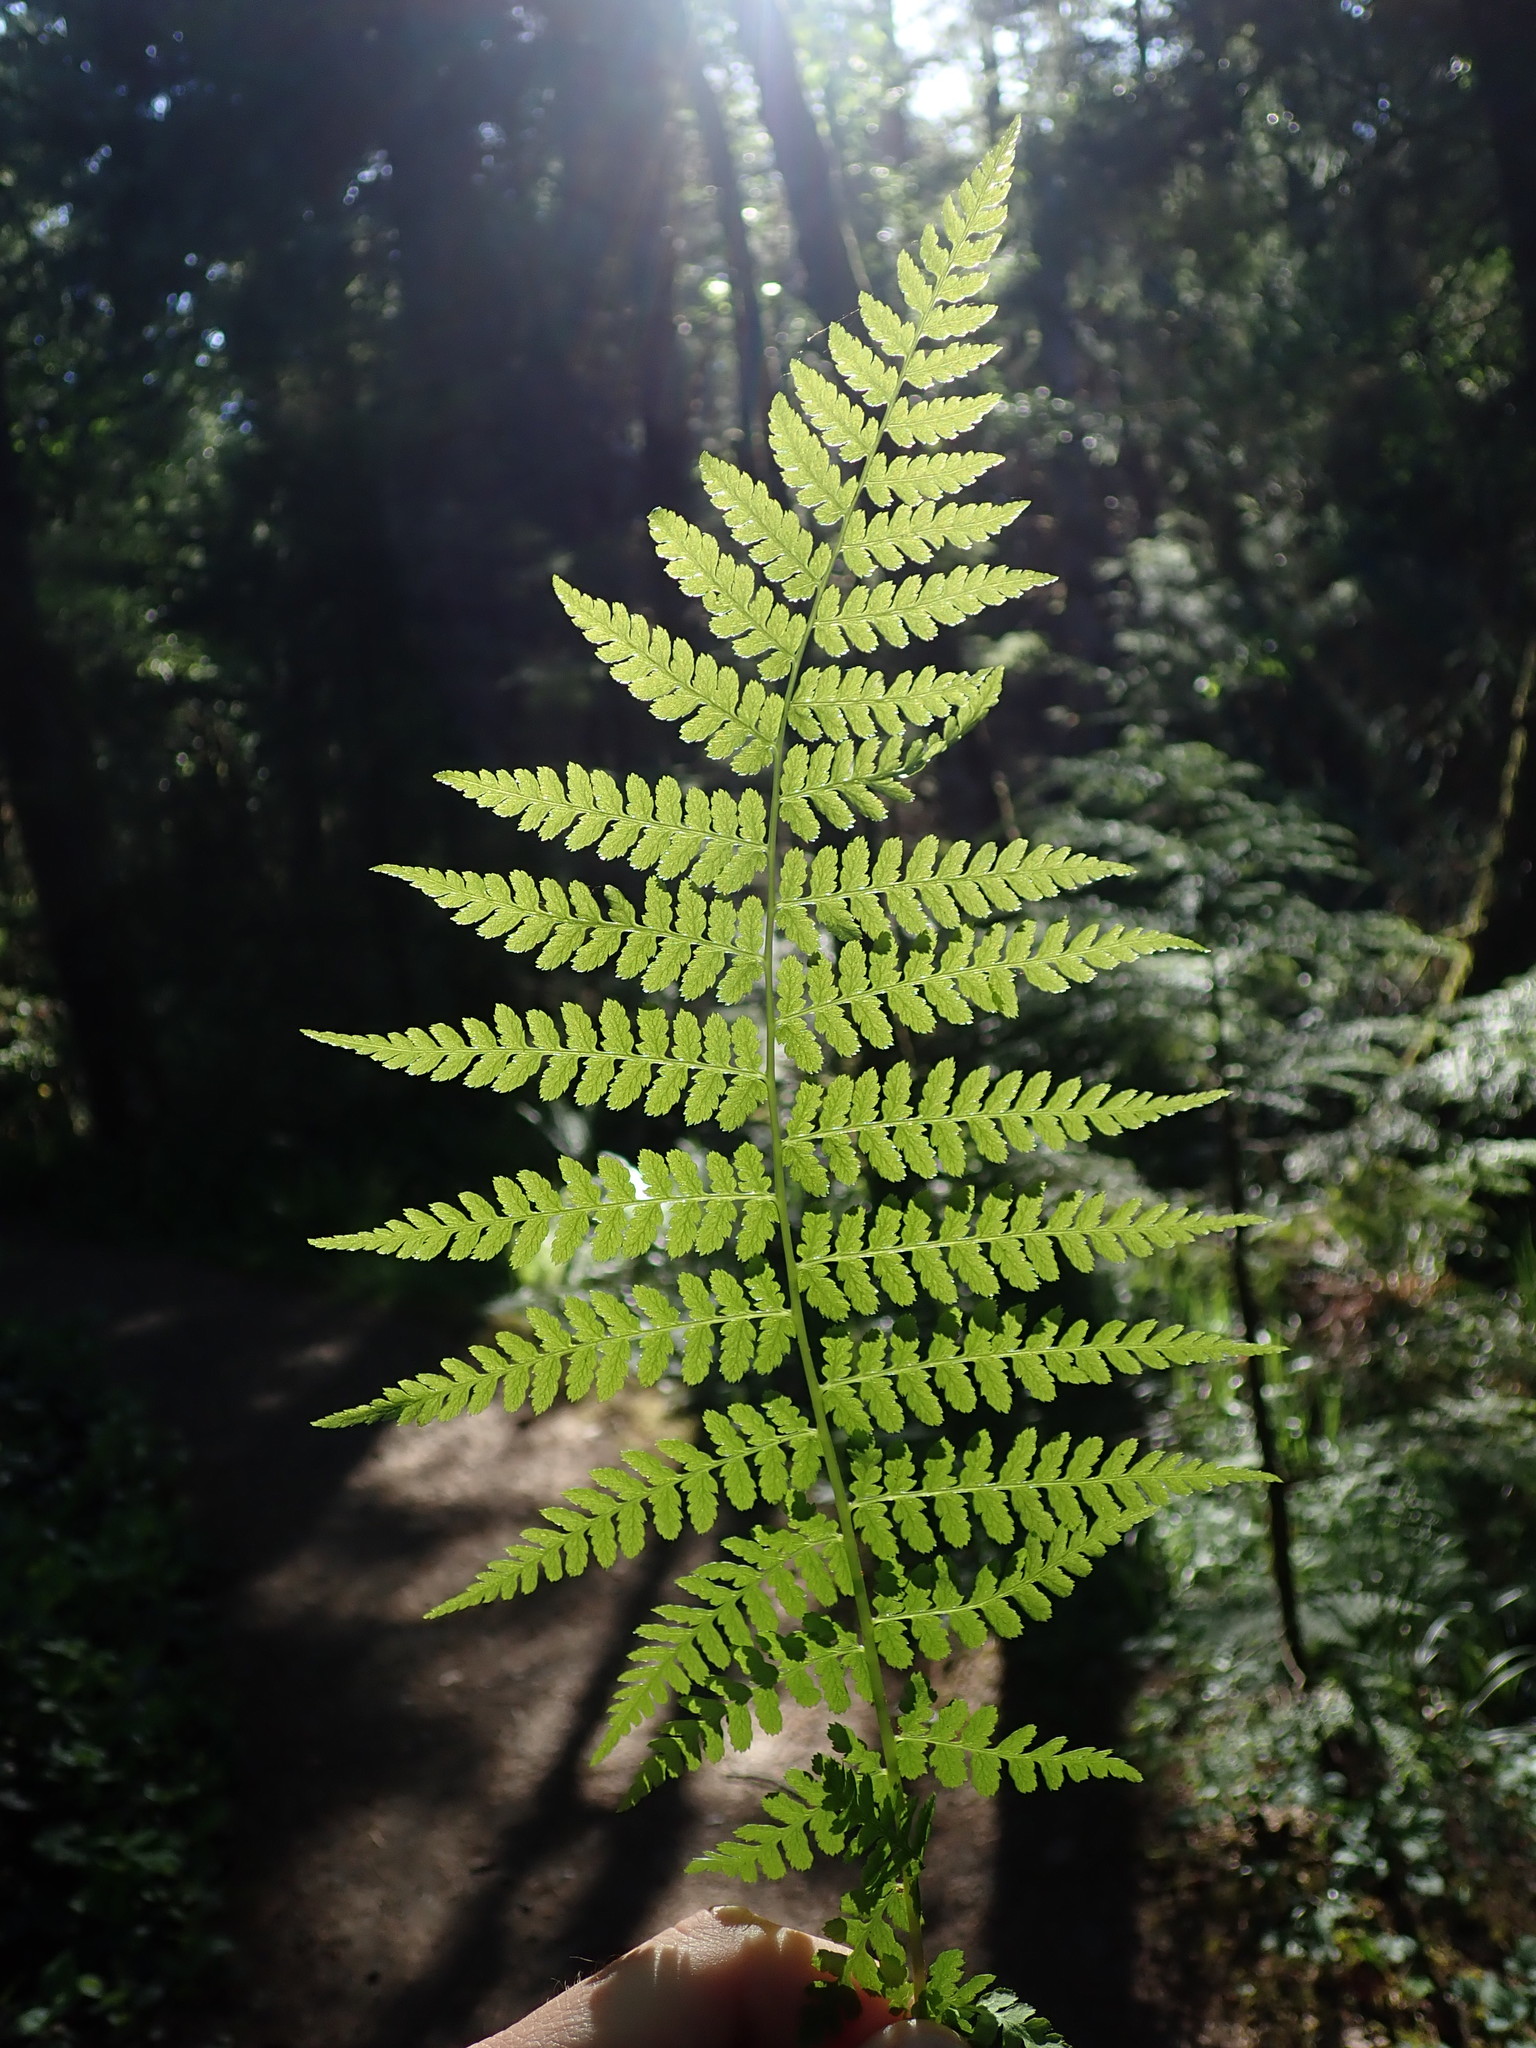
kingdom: Plantae
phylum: Tracheophyta
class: Polypodiopsida
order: Polypodiales
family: Athyriaceae
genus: Athyrium
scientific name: Athyrium filix-femina
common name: Lady fern
